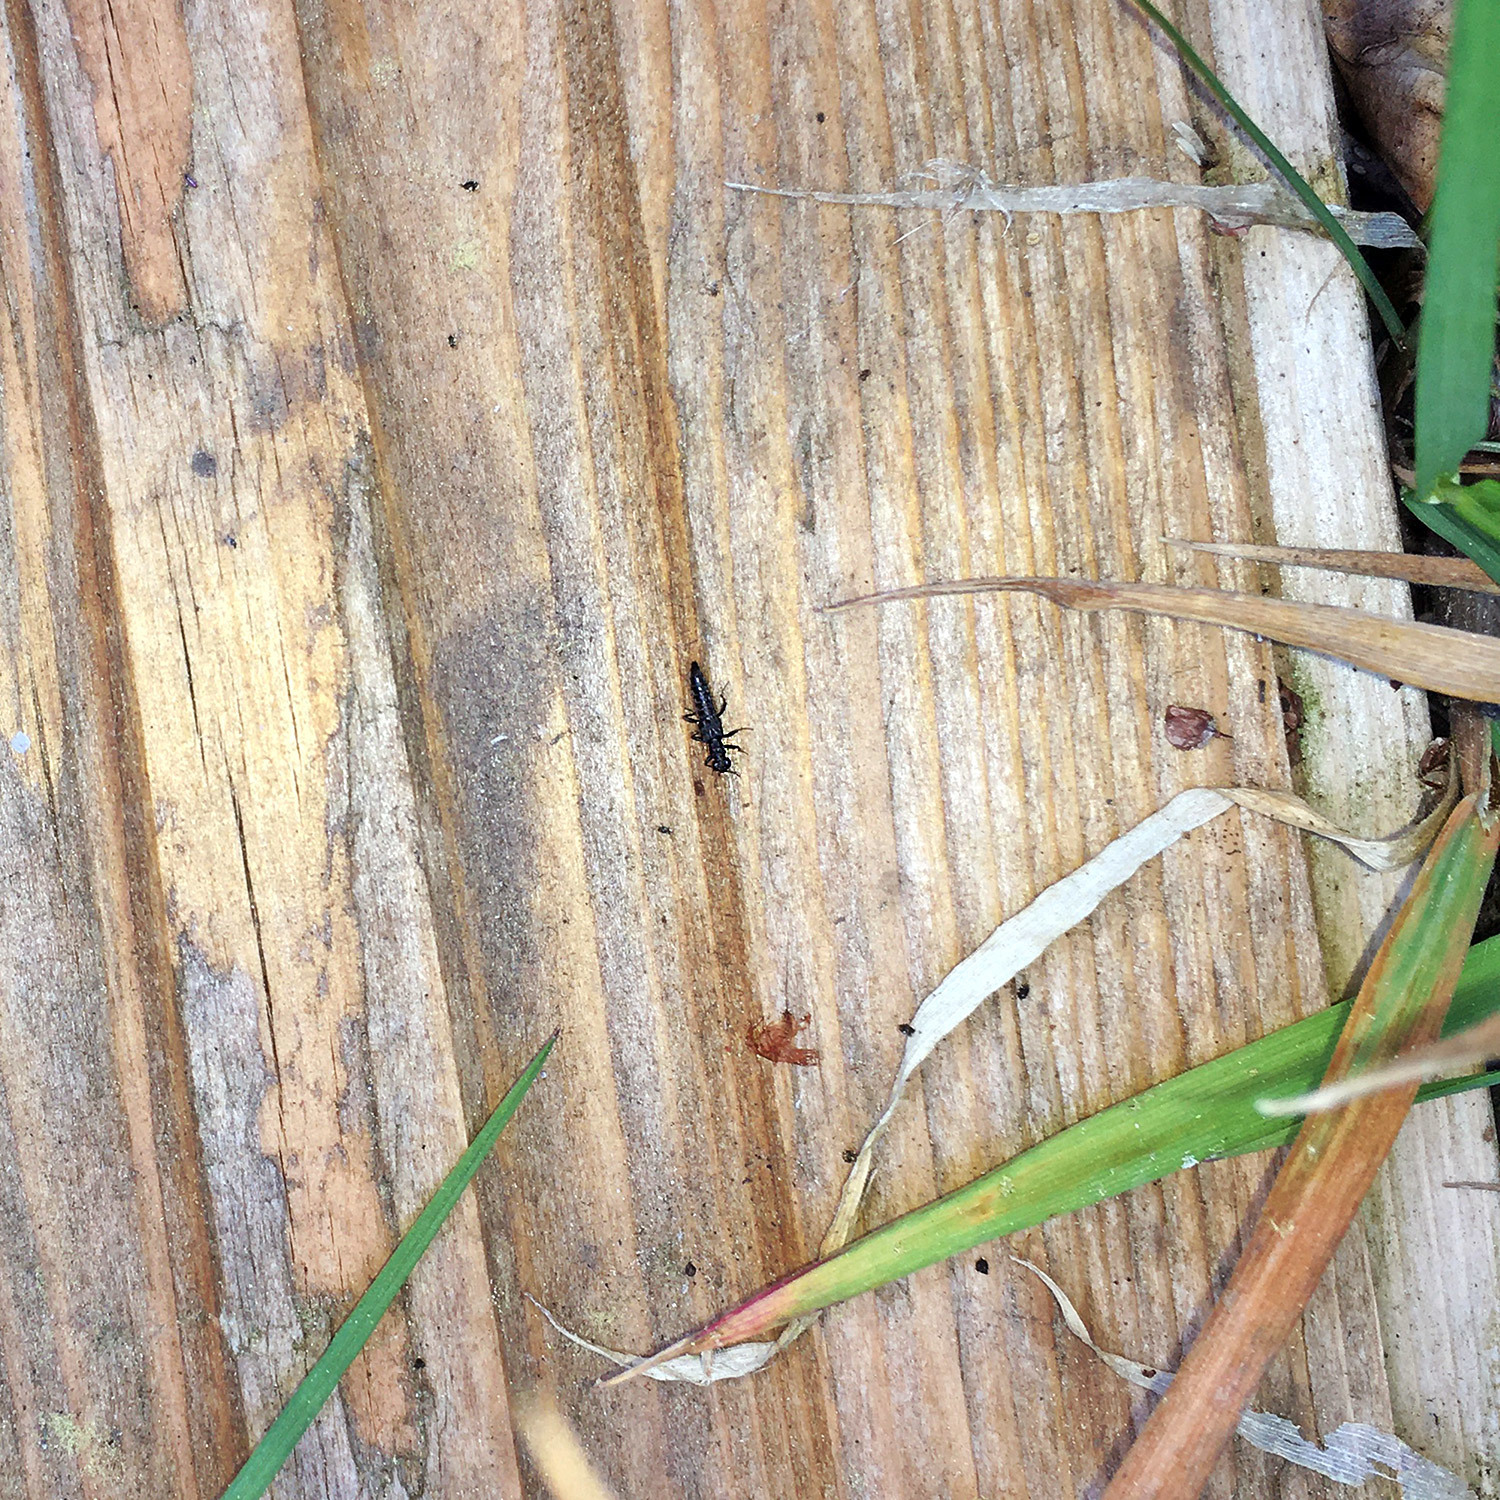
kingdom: Animalia
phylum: Arthropoda
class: Insecta
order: Coleoptera
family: Staphylinidae
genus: Stenus
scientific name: Stenus juno
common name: Rove beetle
